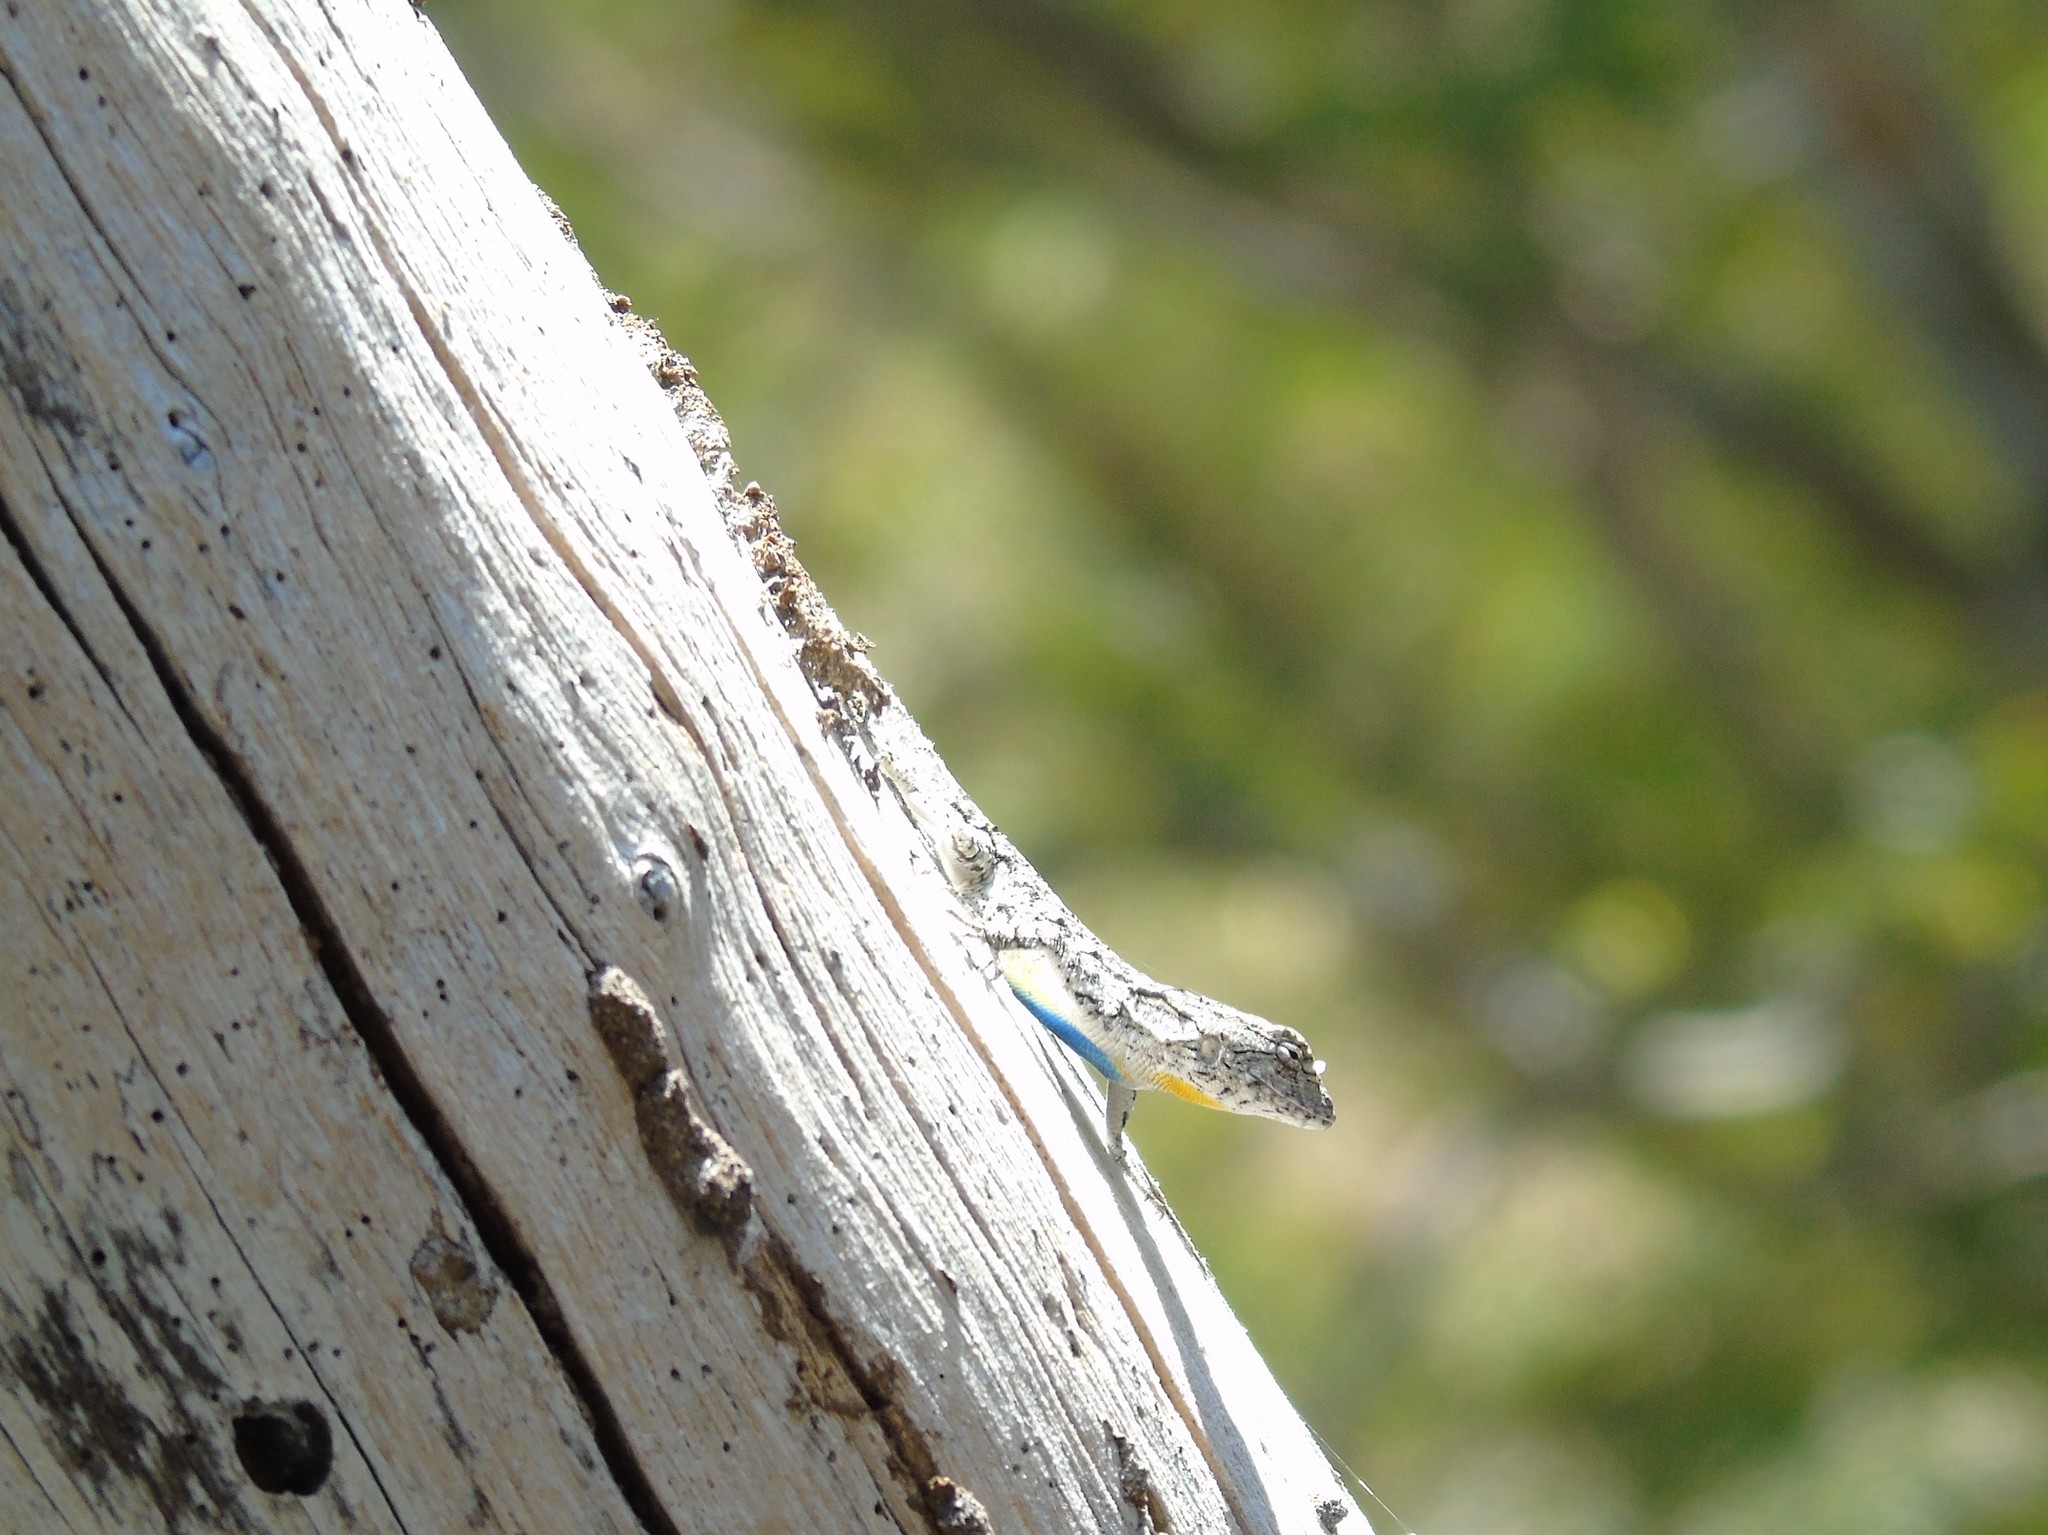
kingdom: Animalia
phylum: Chordata
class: Squamata
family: Phrynosomatidae
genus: Urosaurus
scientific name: Urosaurus bicarinatus
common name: Tropical tree lizard
